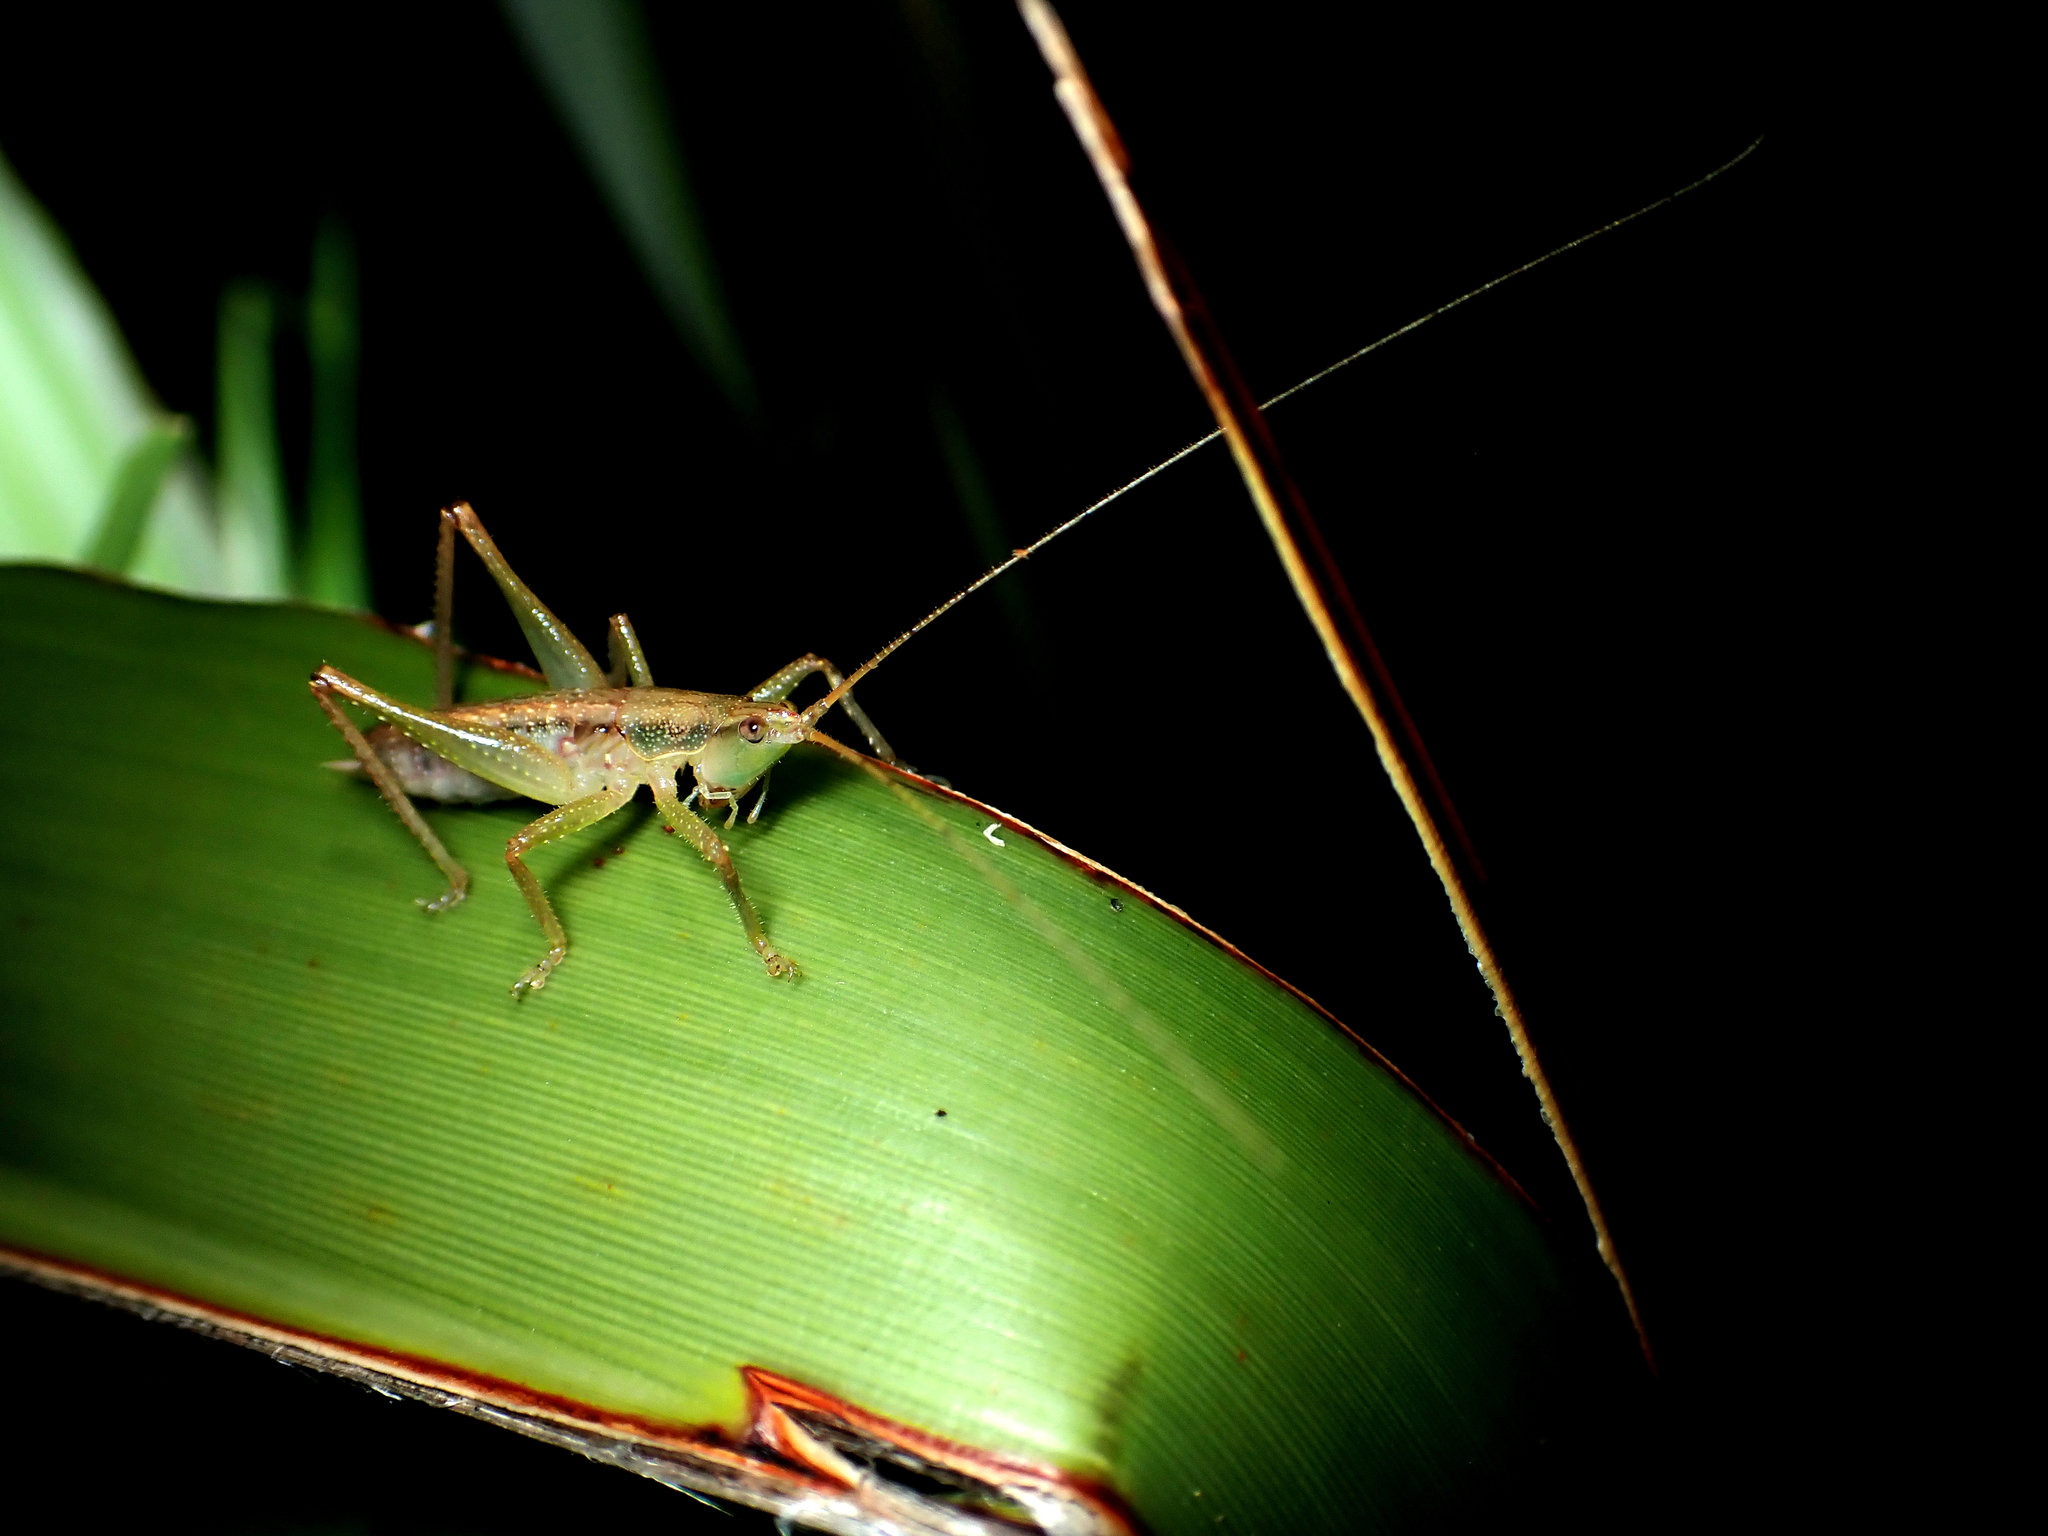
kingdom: Animalia
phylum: Arthropoda
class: Insecta
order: Orthoptera
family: Tettigoniidae
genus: Austrosalomona
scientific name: Austrosalomona falcata
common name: Olive-green coastal katydid
